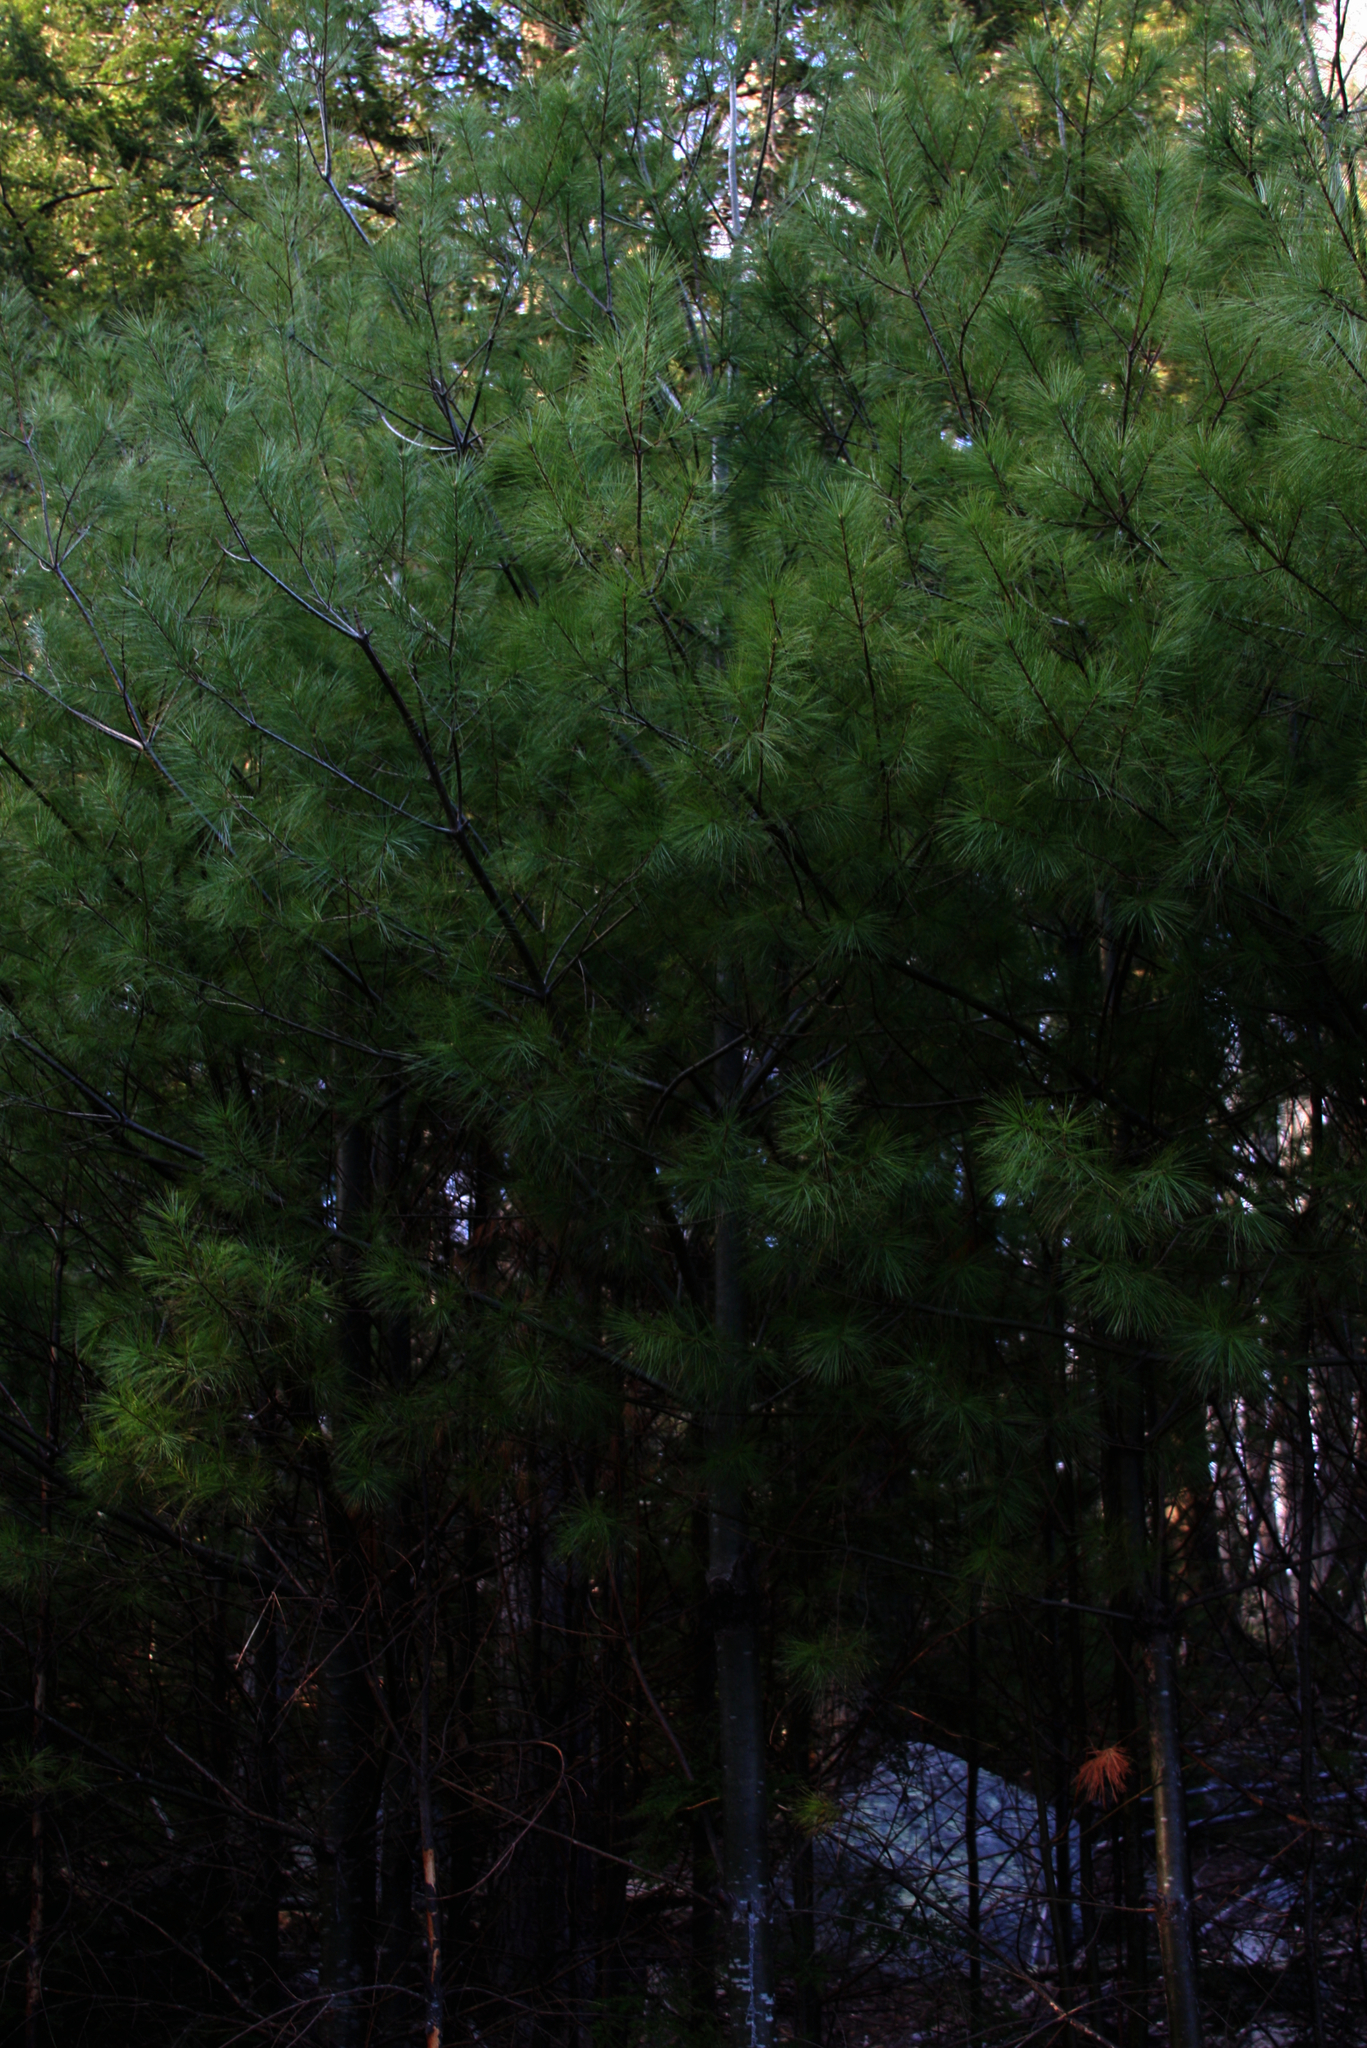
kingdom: Plantae
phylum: Tracheophyta
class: Pinopsida
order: Pinales
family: Pinaceae
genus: Pinus
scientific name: Pinus strobus
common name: Weymouth pine
